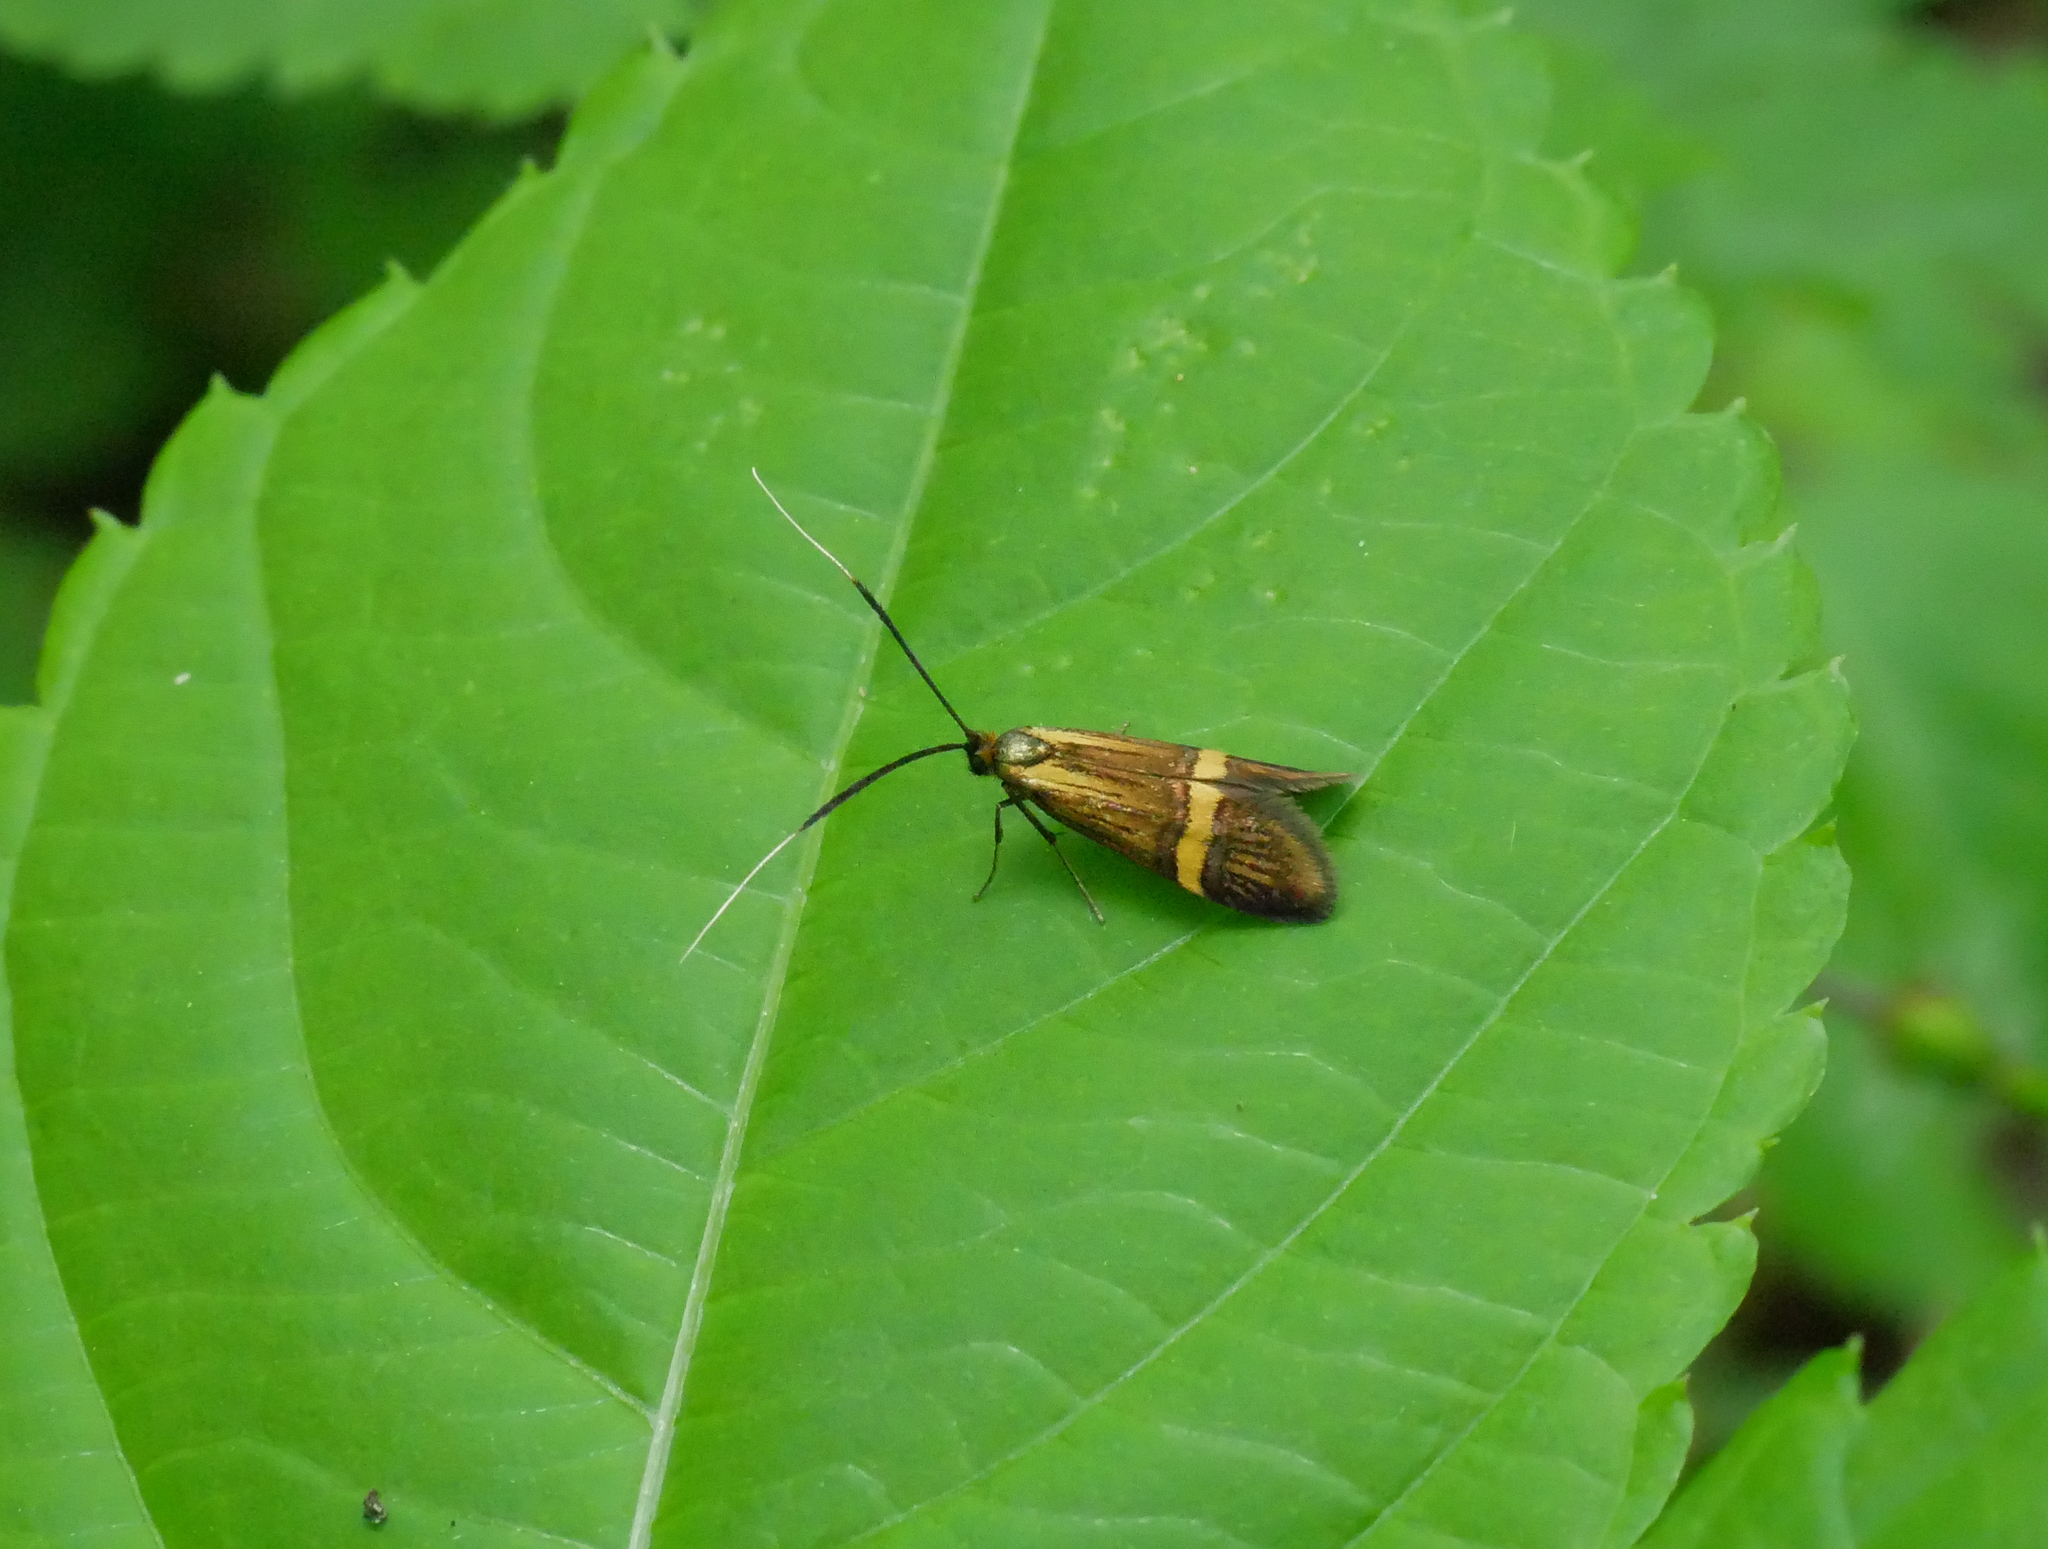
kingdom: Animalia
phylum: Arthropoda
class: Insecta
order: Lepidoptera
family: Adelidae
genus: Nemophora
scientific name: Nemophora degeerella
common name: Yellow-barred long-horn
